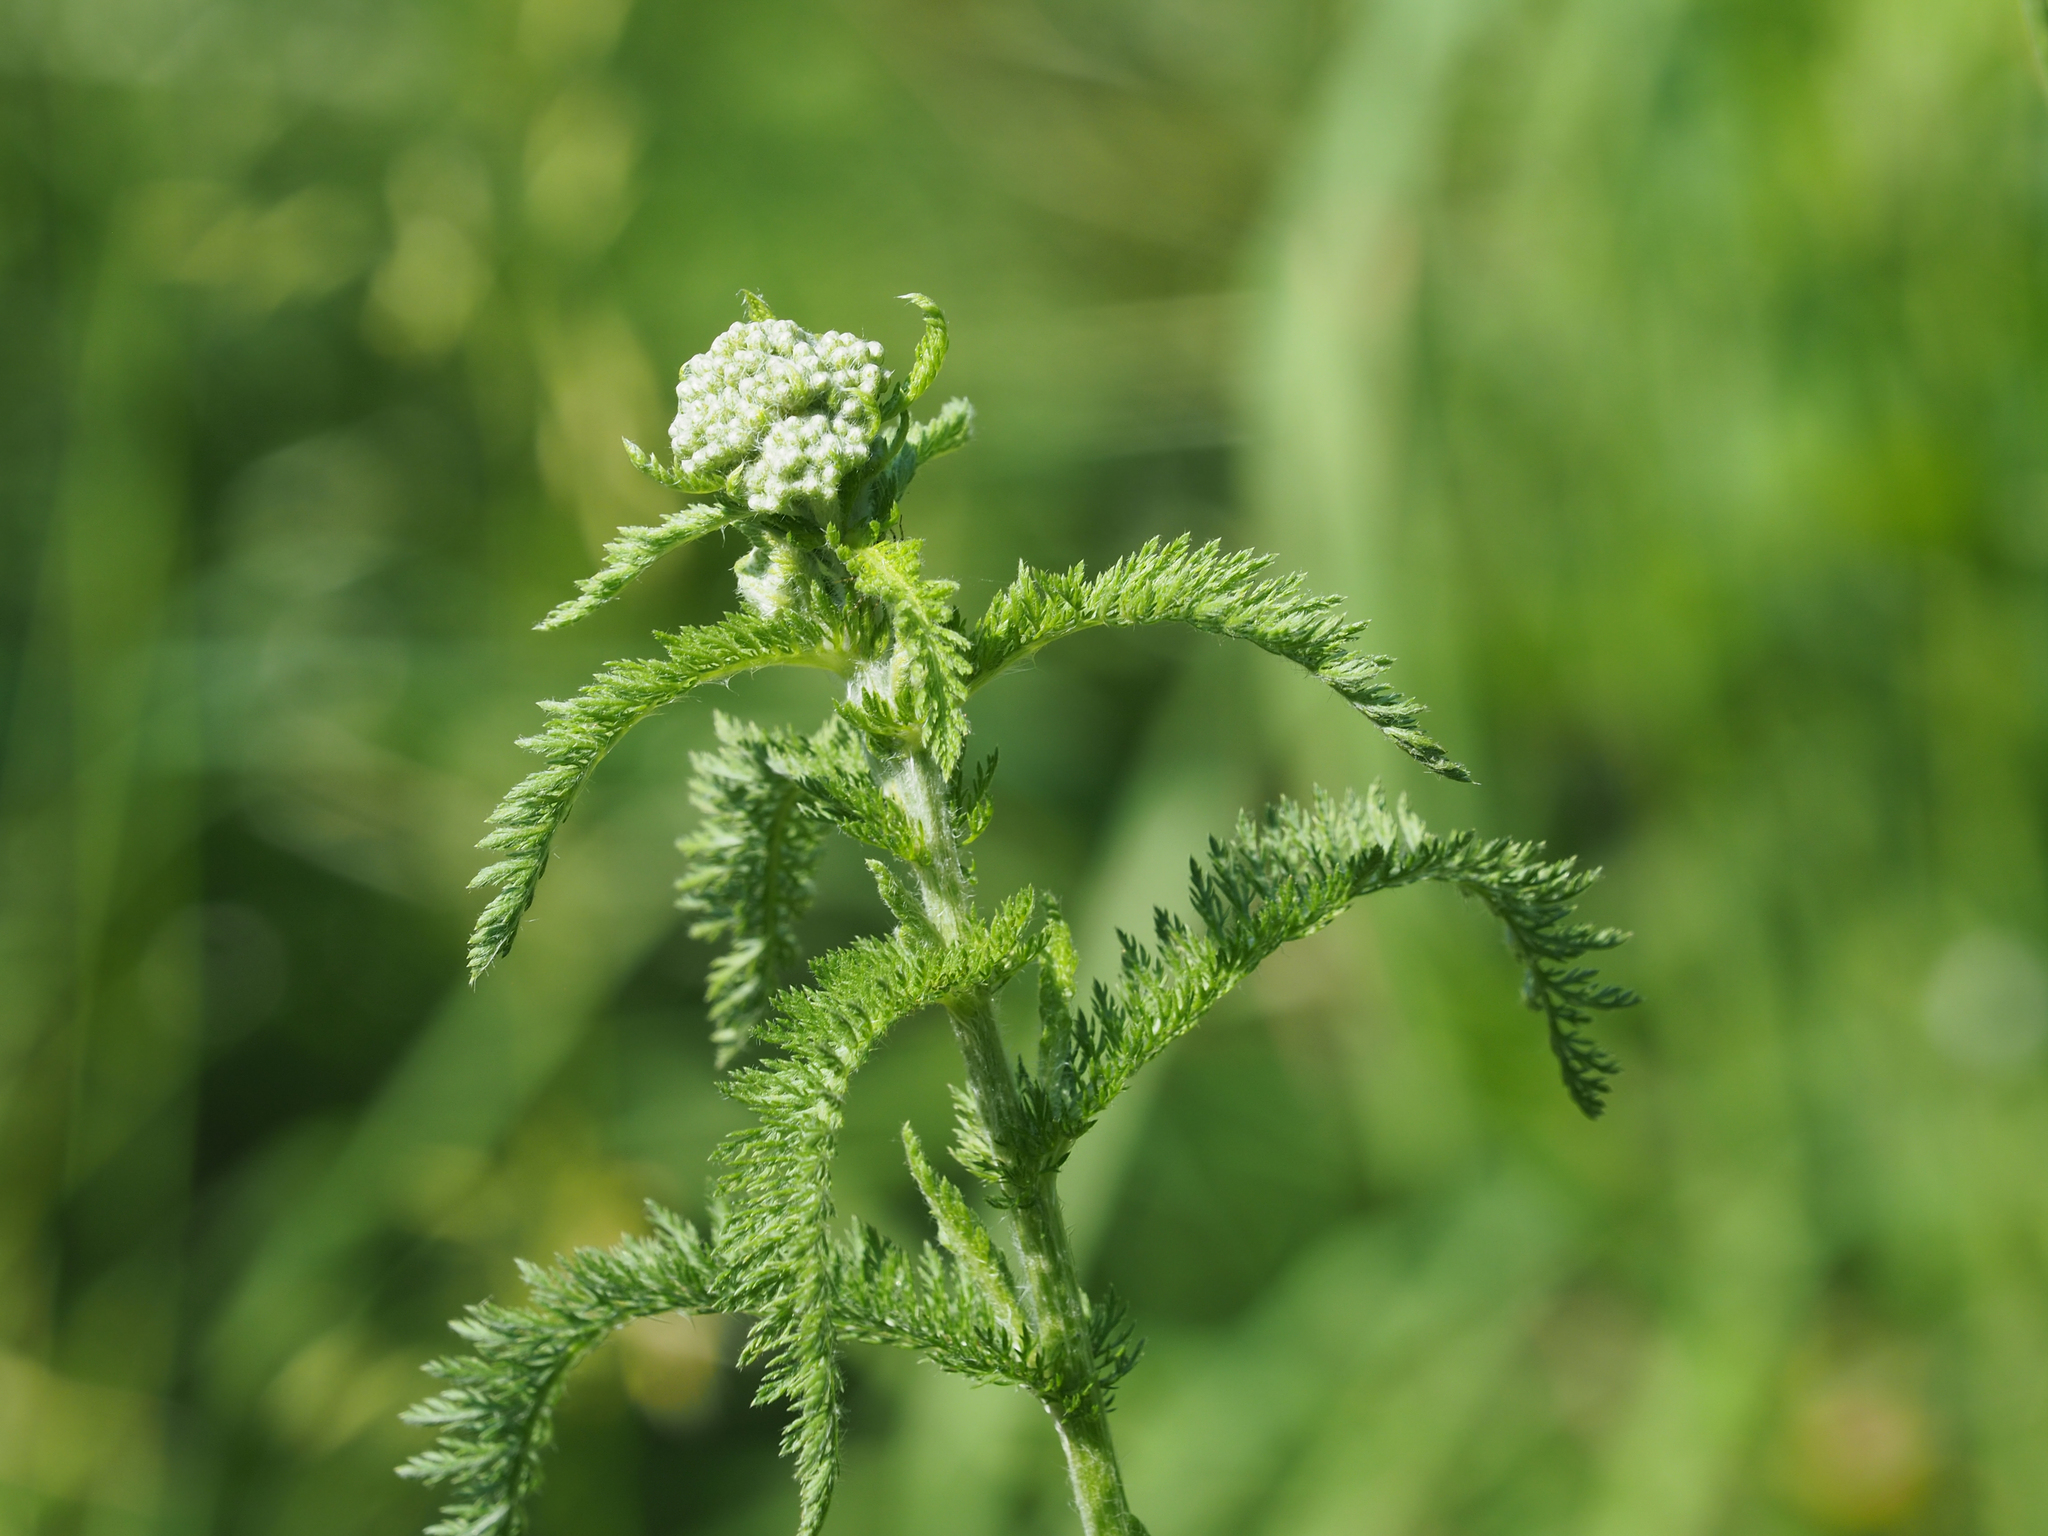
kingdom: Plantae
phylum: Tracheophyta
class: Magnoliopsida
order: Asterales
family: Asteraceae
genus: Achillea
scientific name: Achillea millefolium
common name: Yarrow
